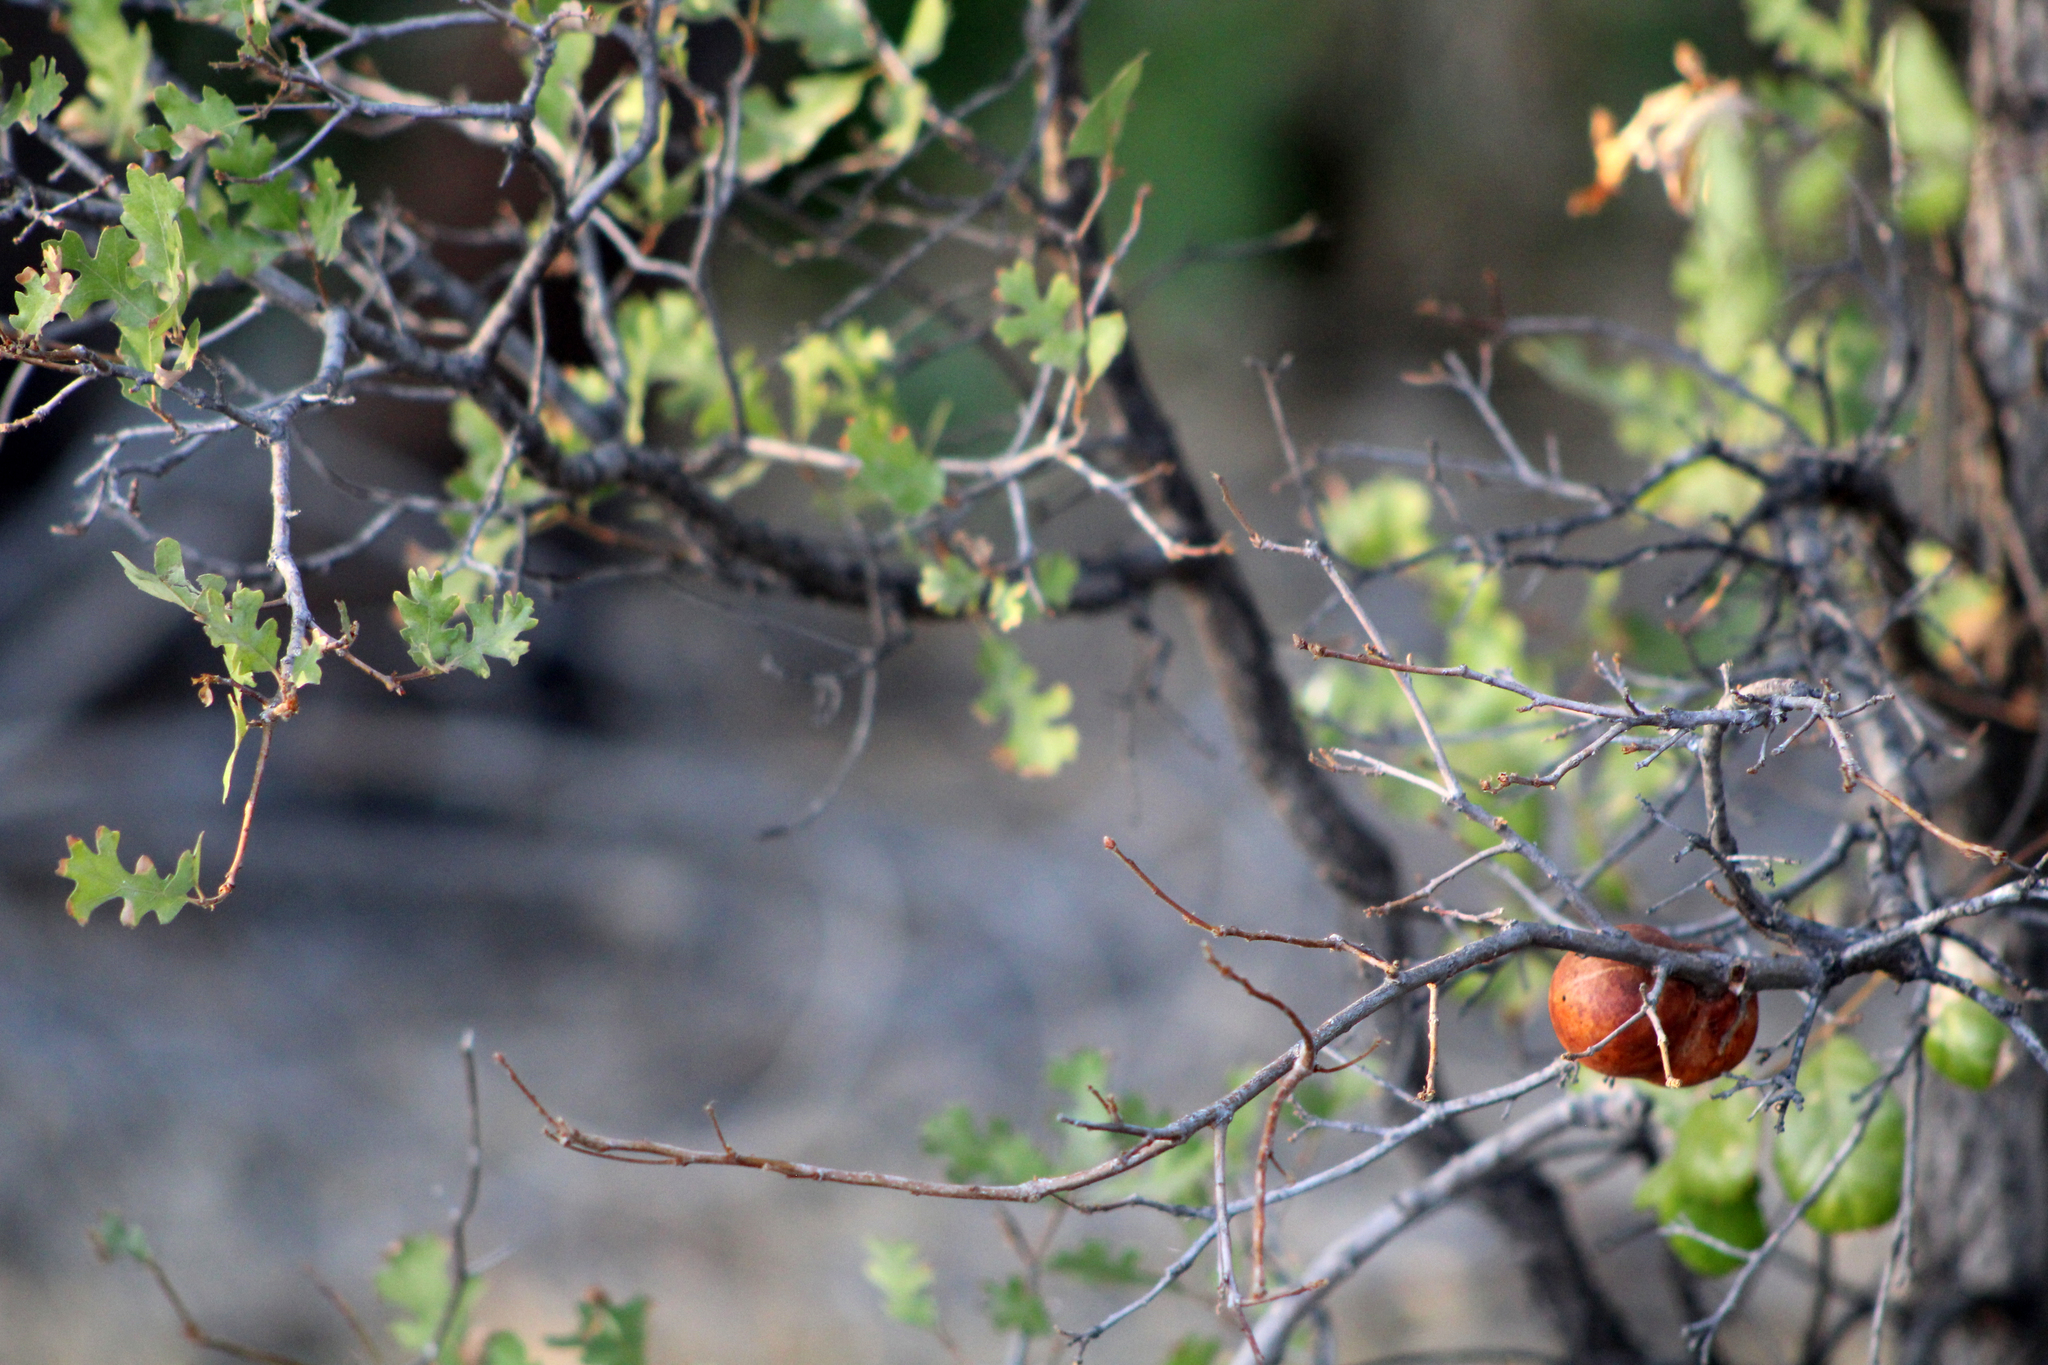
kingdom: Animalia
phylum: Arthropoda
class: Insecta
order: Hymenoptera
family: Cynipidae
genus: Andricus
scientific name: Andricus quercuscalifornicus
